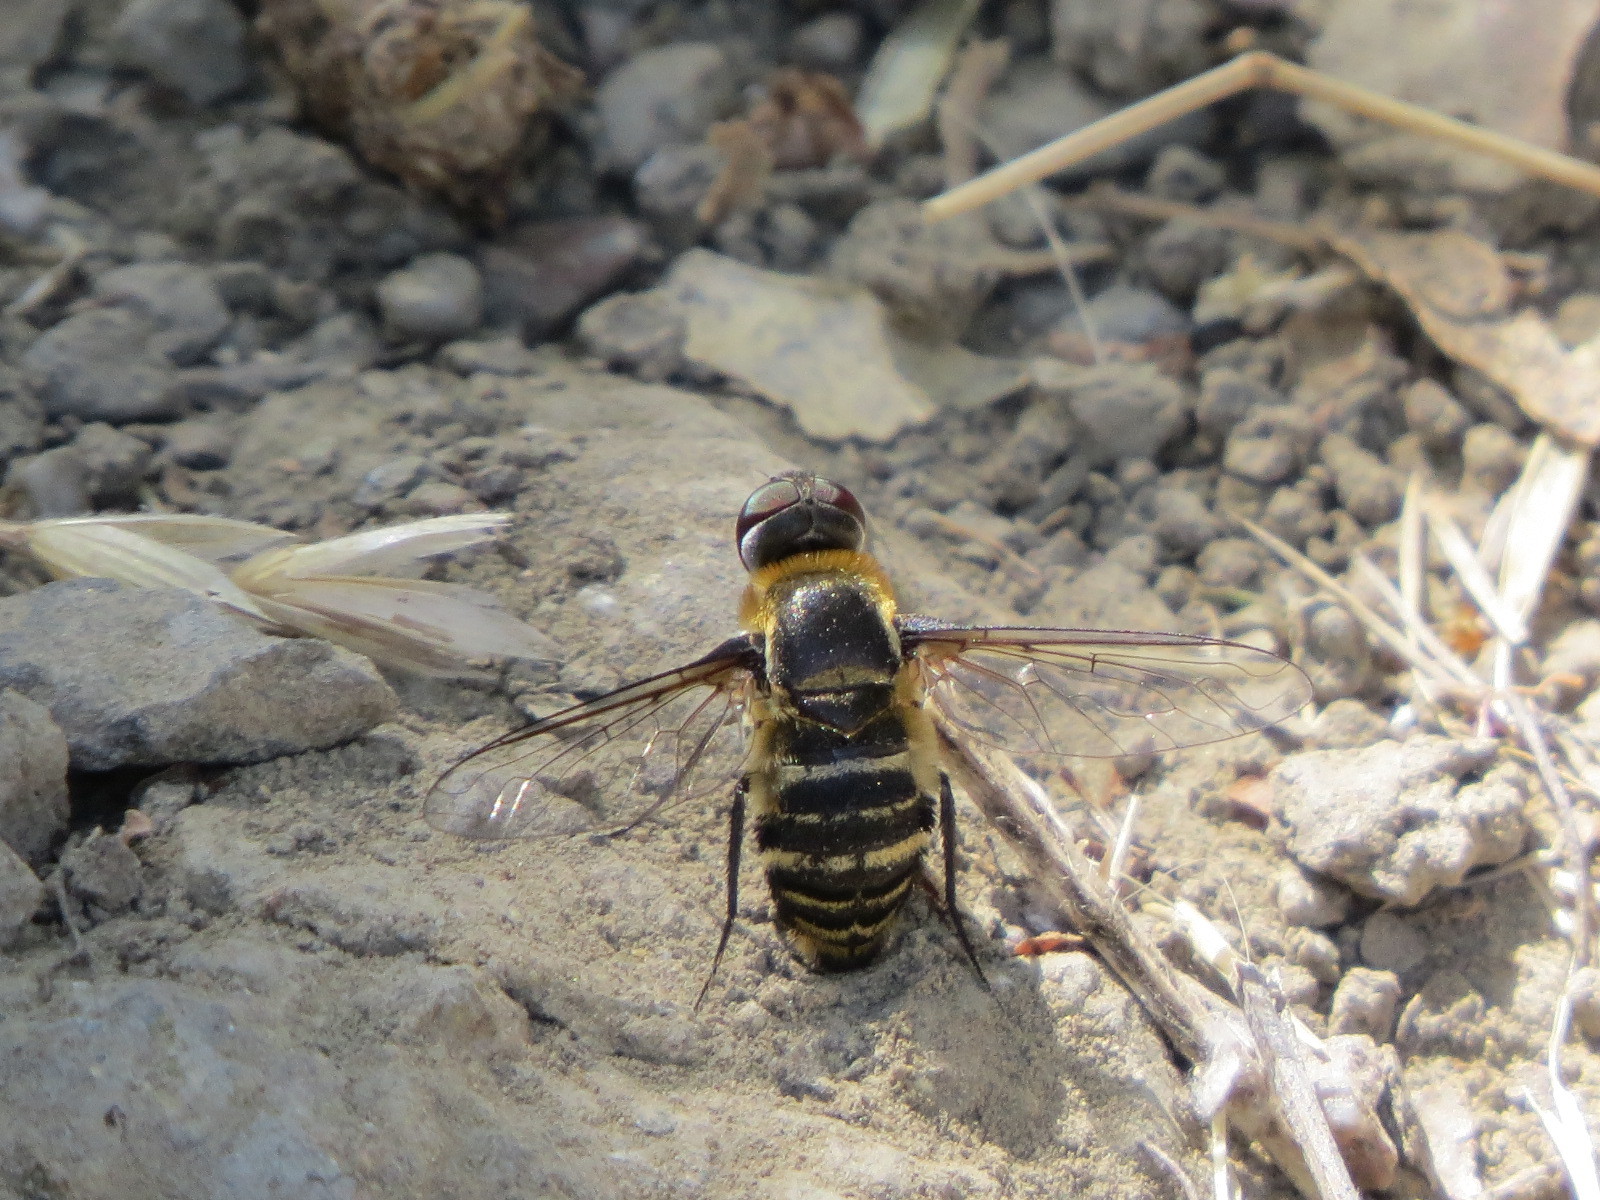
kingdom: Animalia
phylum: Arthropoda
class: Insecta
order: Diptera
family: Bombyliidae
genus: Villa
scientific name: Villa lateralis
